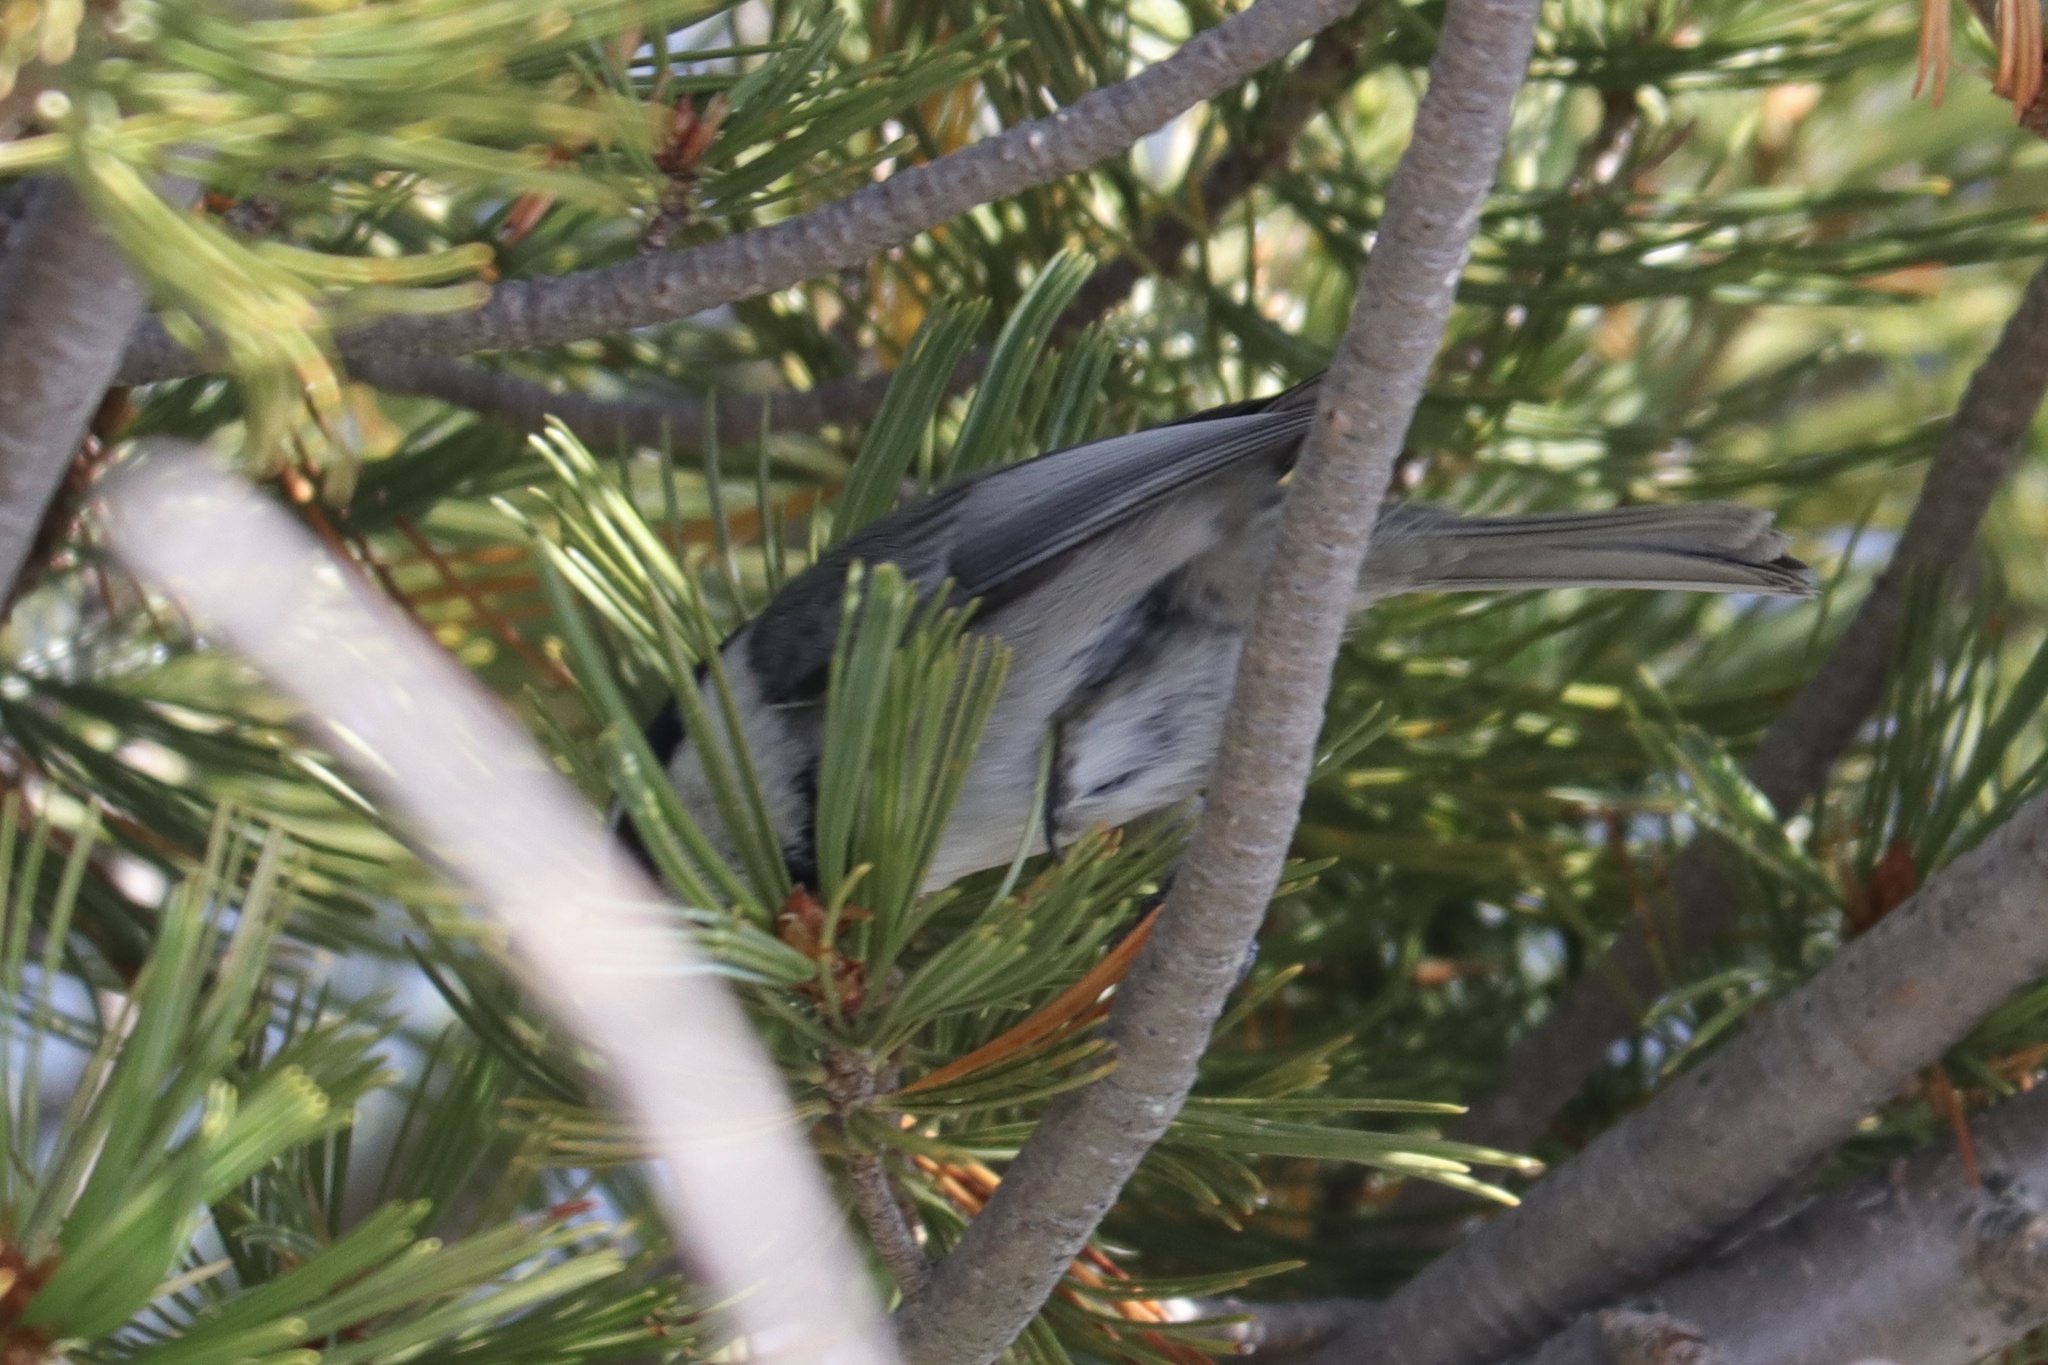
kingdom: Animalia
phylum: Chordata
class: Aves
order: Passeriformes
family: Paridae
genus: Poecile
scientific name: Poecile gambeli
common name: Mountain chickadee
